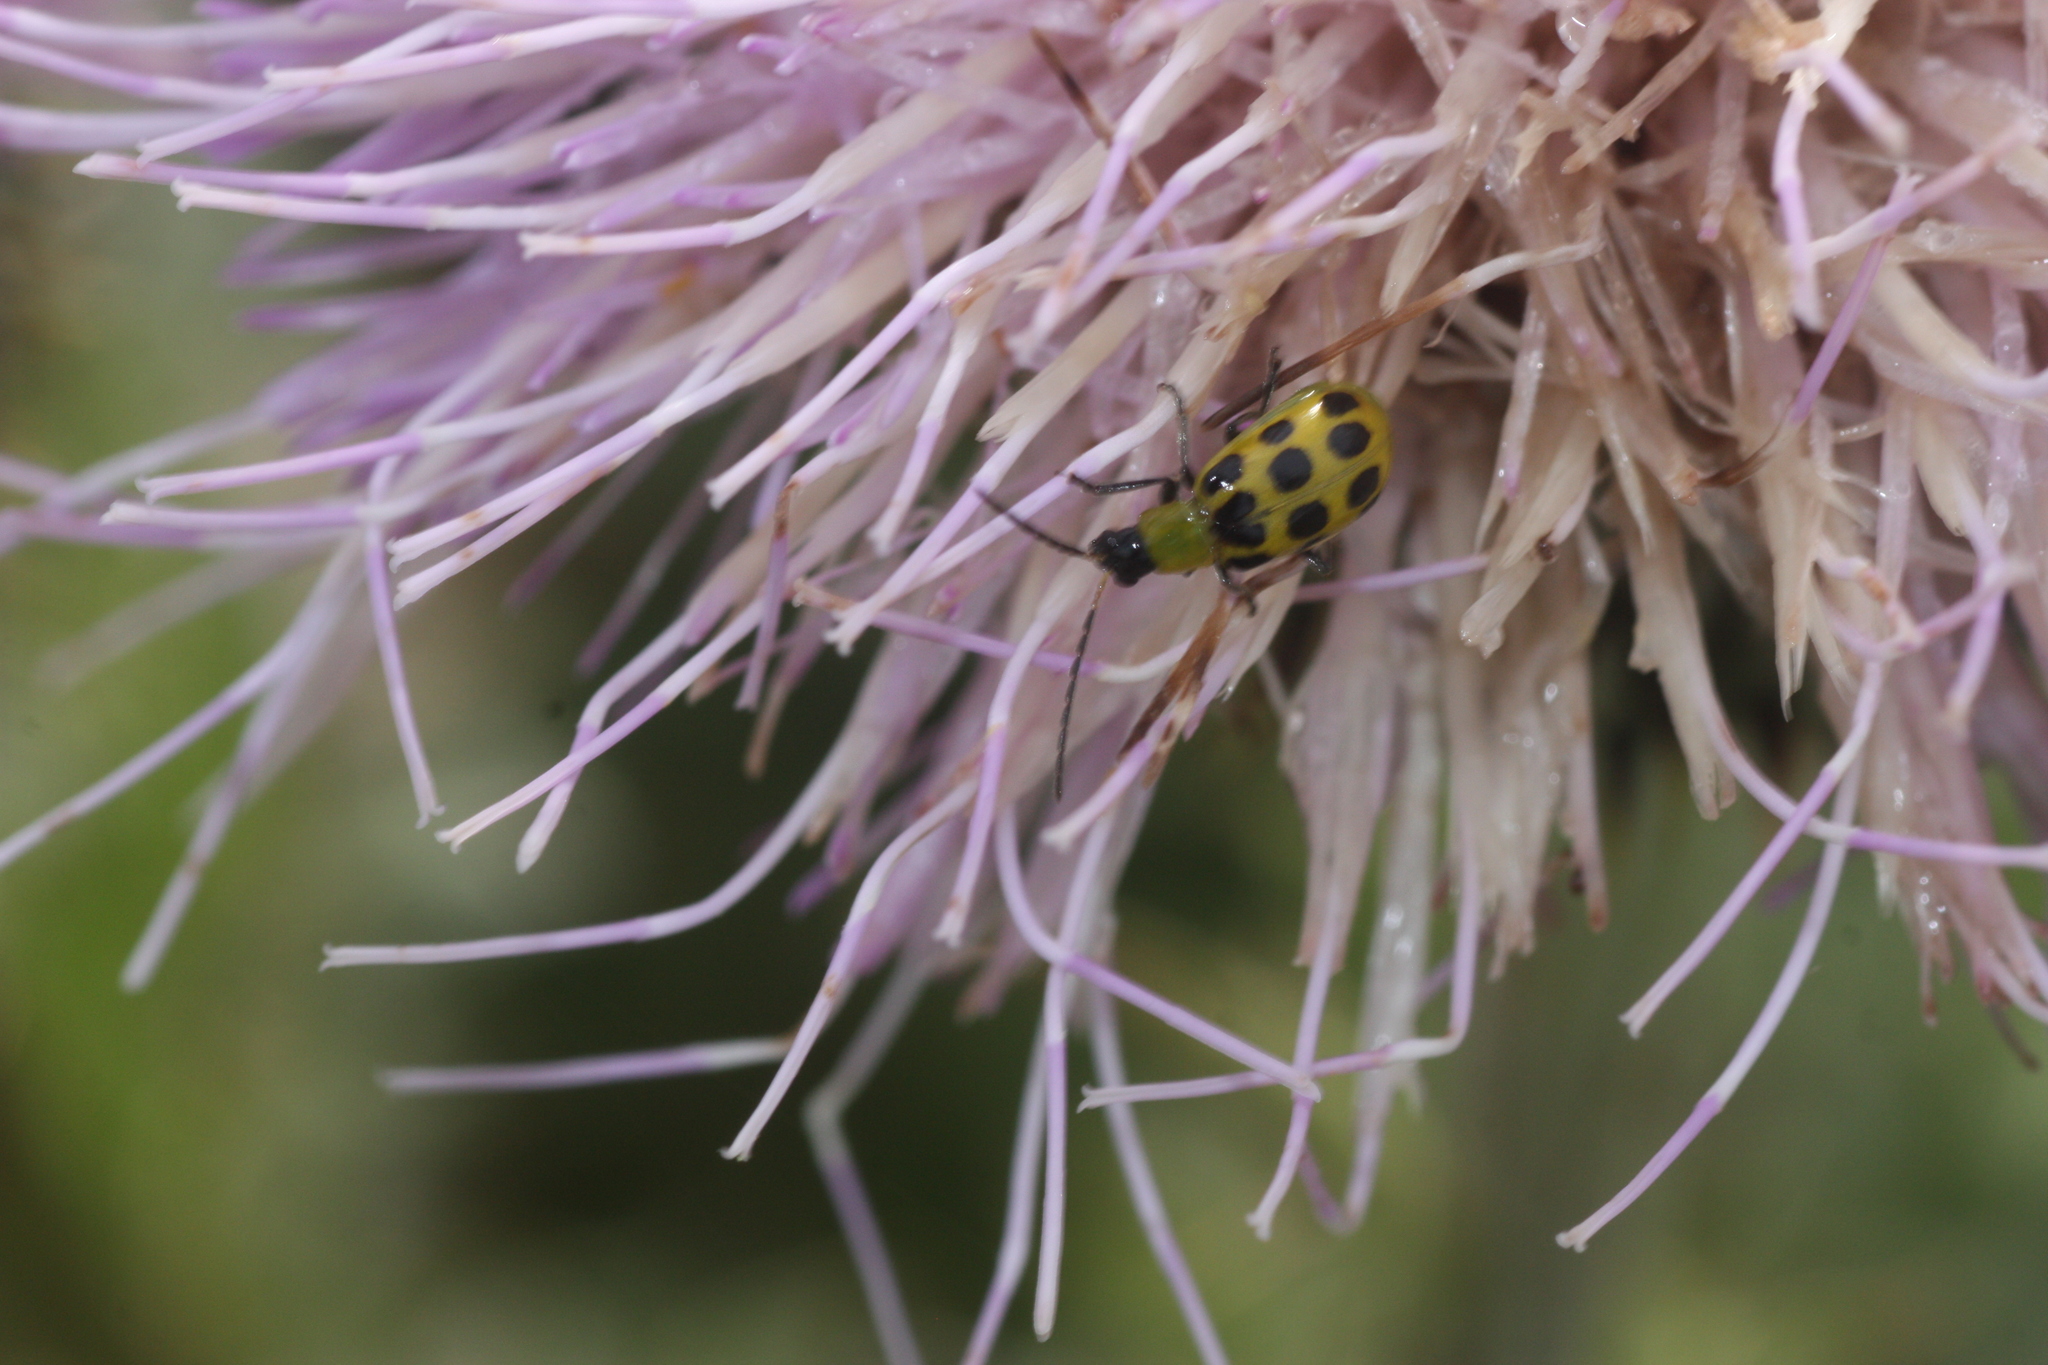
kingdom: Animalia
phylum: Arthropoda
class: Insecta
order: Coleoptera
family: Chrysomelidae
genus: Diabrotica
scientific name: Diabrotica undecimpunctata
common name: Spotted cucumber beetle
